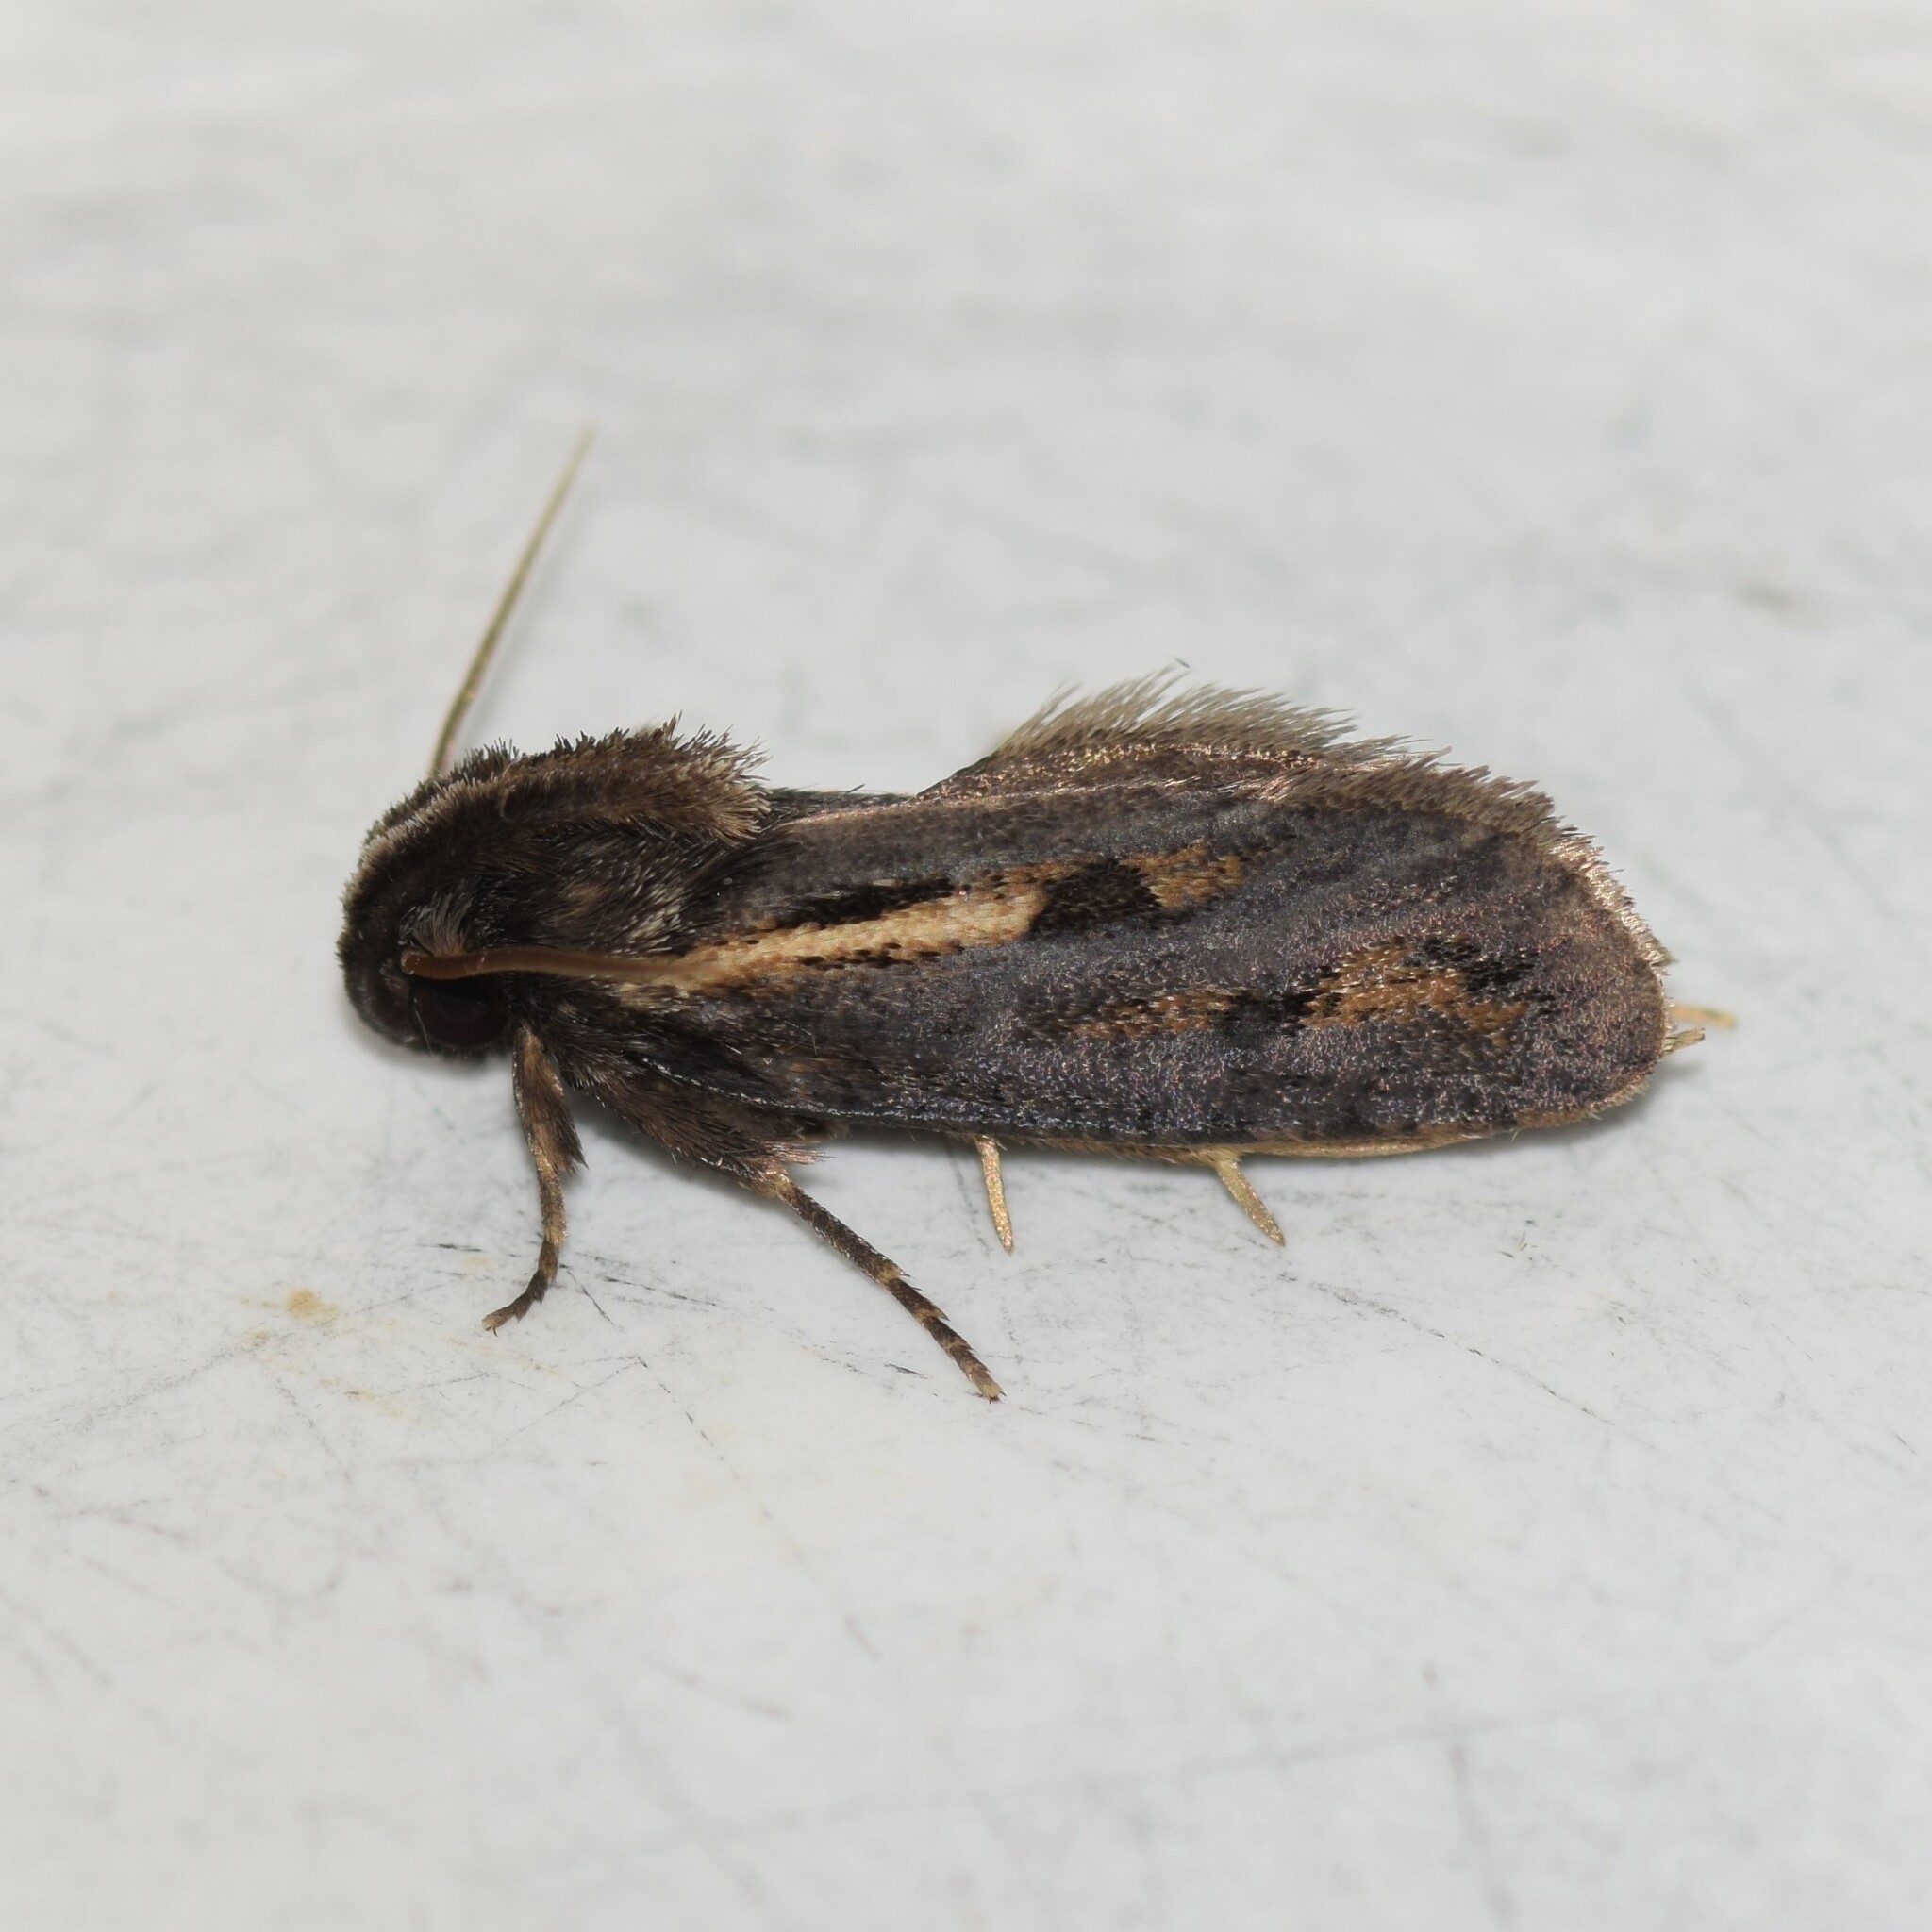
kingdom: Animalia
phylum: Arthropoda
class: Insecta
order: Lepidoptera
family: Tineidae
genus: Acrolophus
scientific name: Acrolophus popeanella
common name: Clemens' grass tubeworm moth
